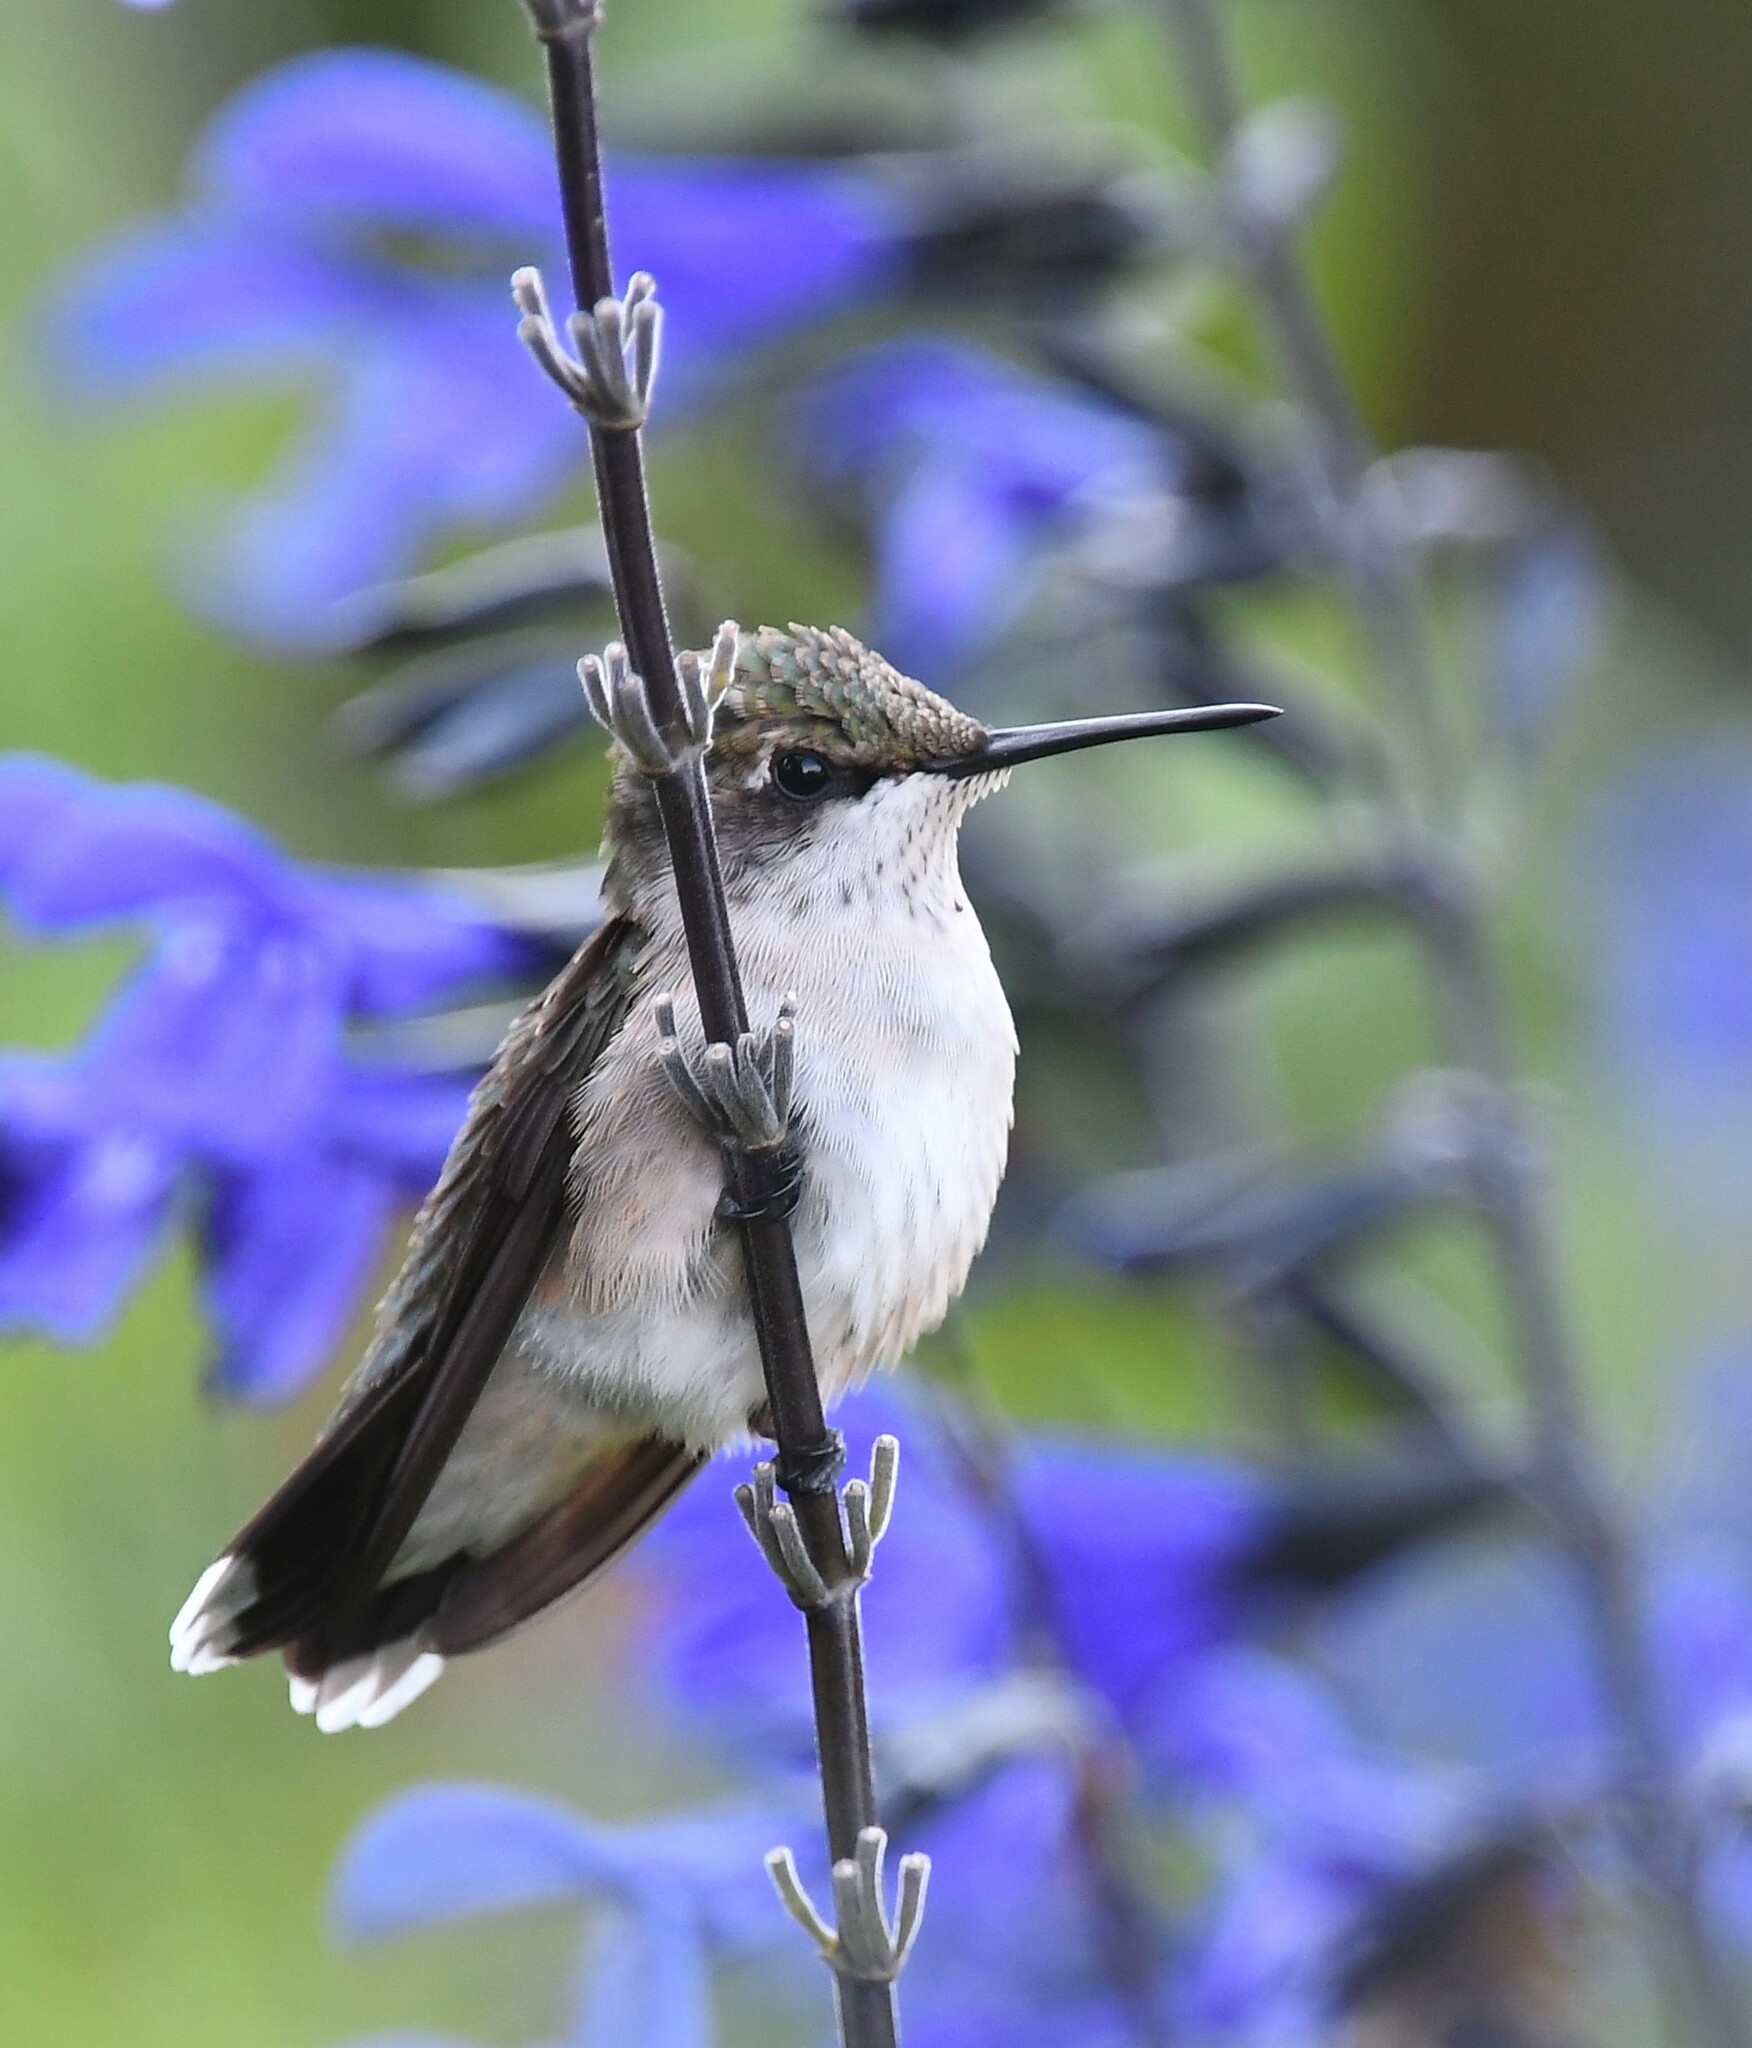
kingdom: Animalia
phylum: Chordata
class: Aves
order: Apodiformes
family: Trochilidae
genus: Archilochus
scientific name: Archilochus colubris
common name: Ruby-throated hummingbird
